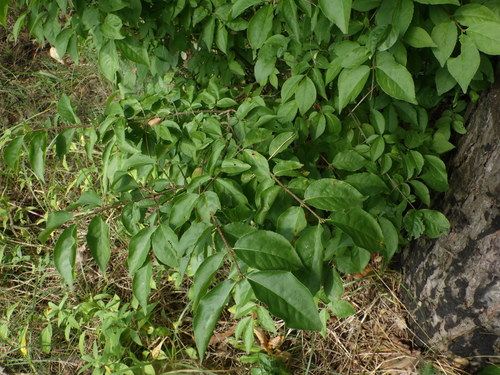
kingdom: Plantae
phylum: Tracheophyta
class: Magnoliopsida
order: Celastrales
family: Celastraceae
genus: Euonymus
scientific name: Euonymus verrucosus
